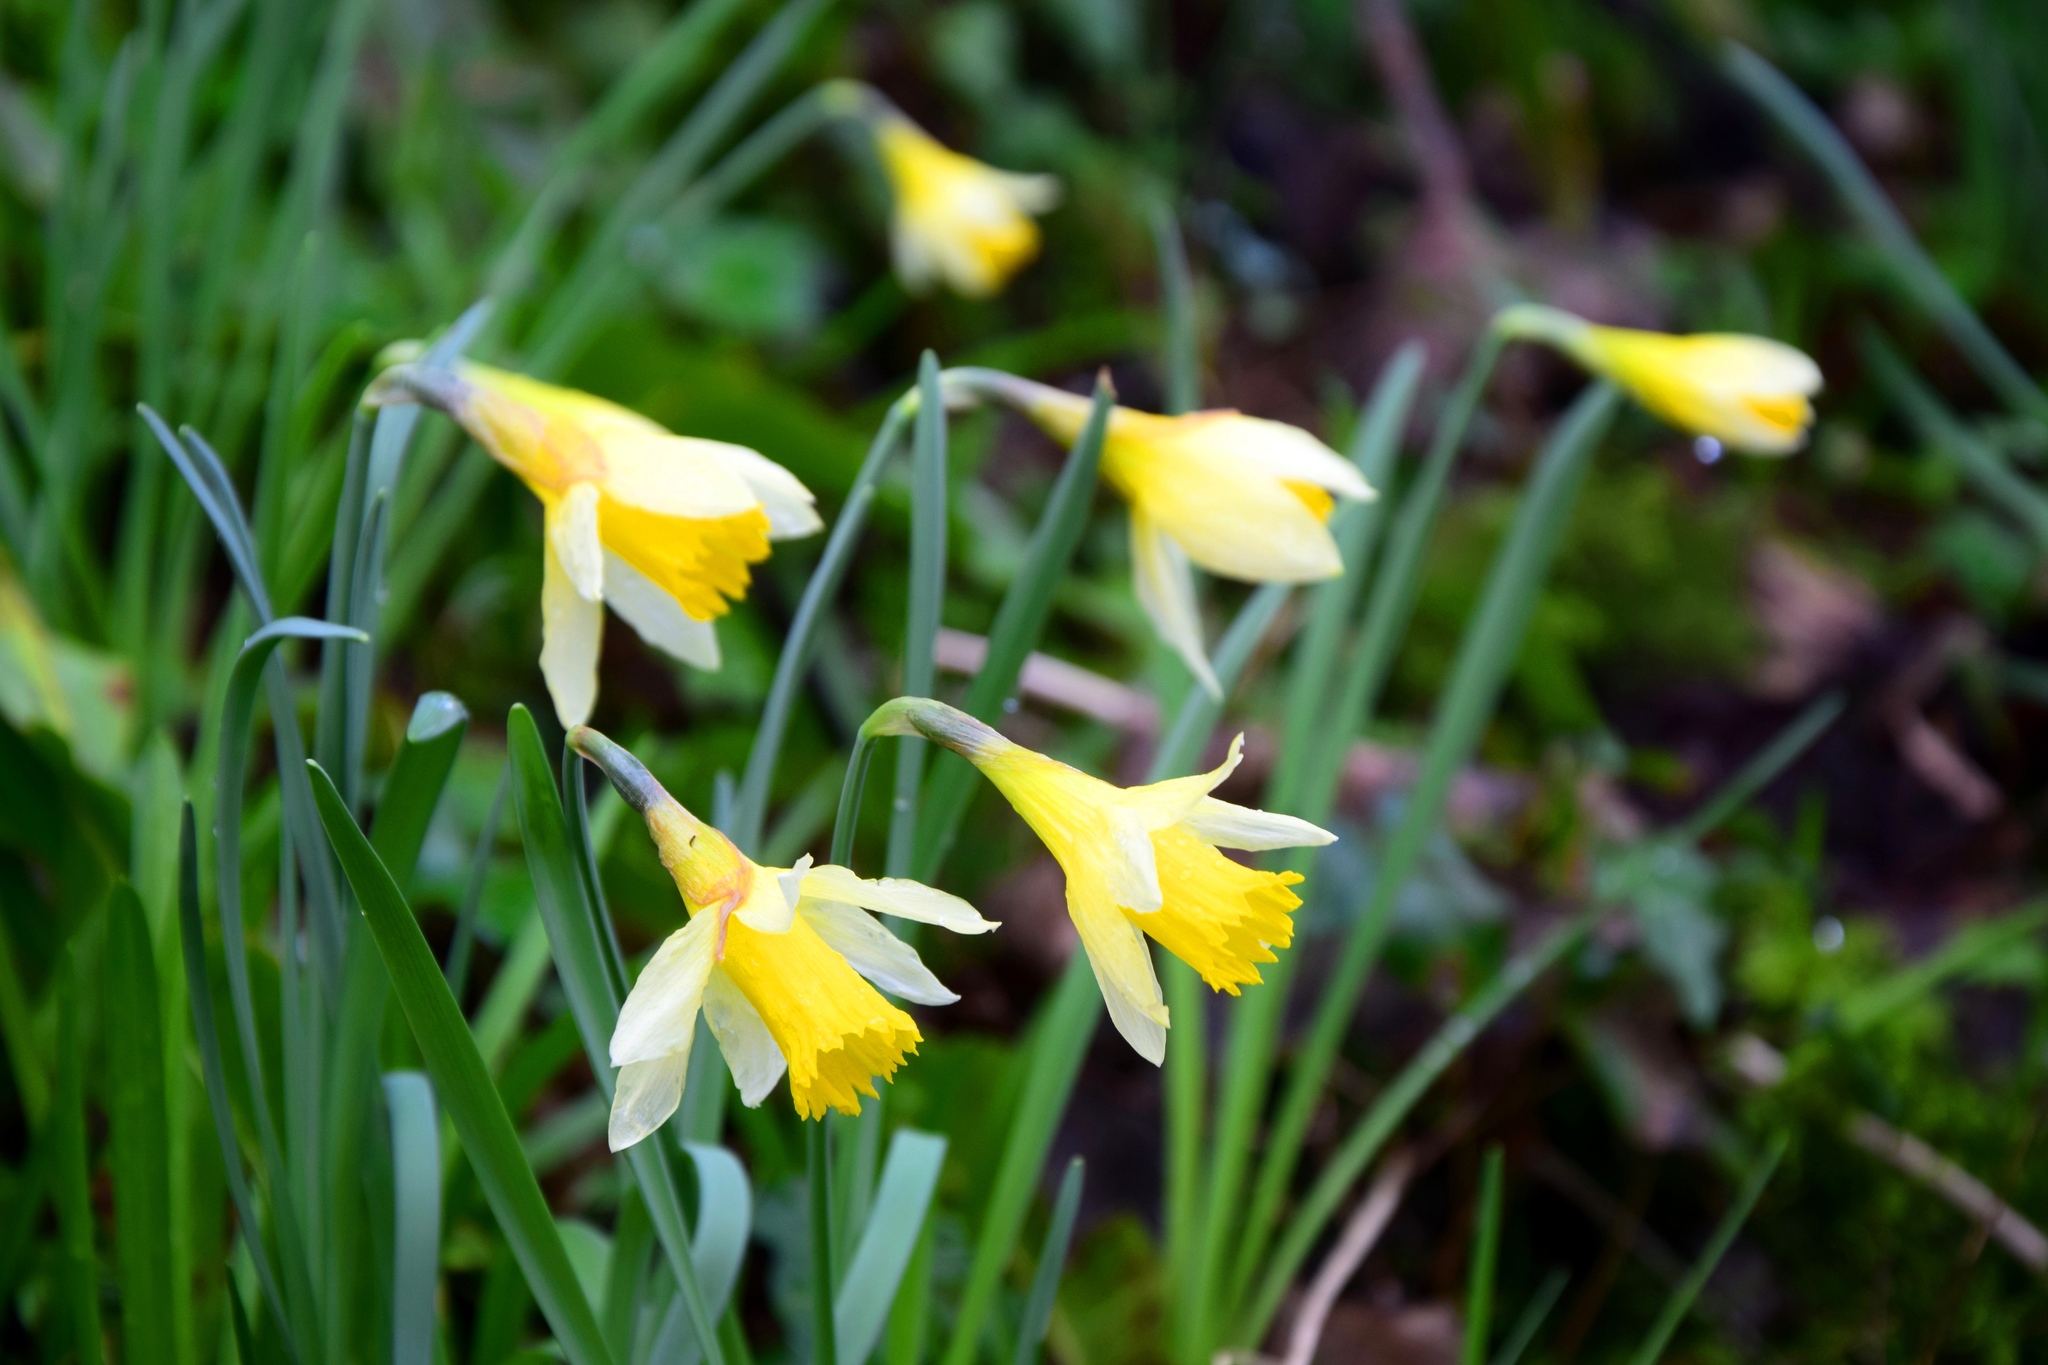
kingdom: Plantae
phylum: Tracheophyta
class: Liliopsida
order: Asparagales
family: Amaryllidaceae
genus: Narcissus
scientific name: Narcissus pseudonarcissus
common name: Daffodil
